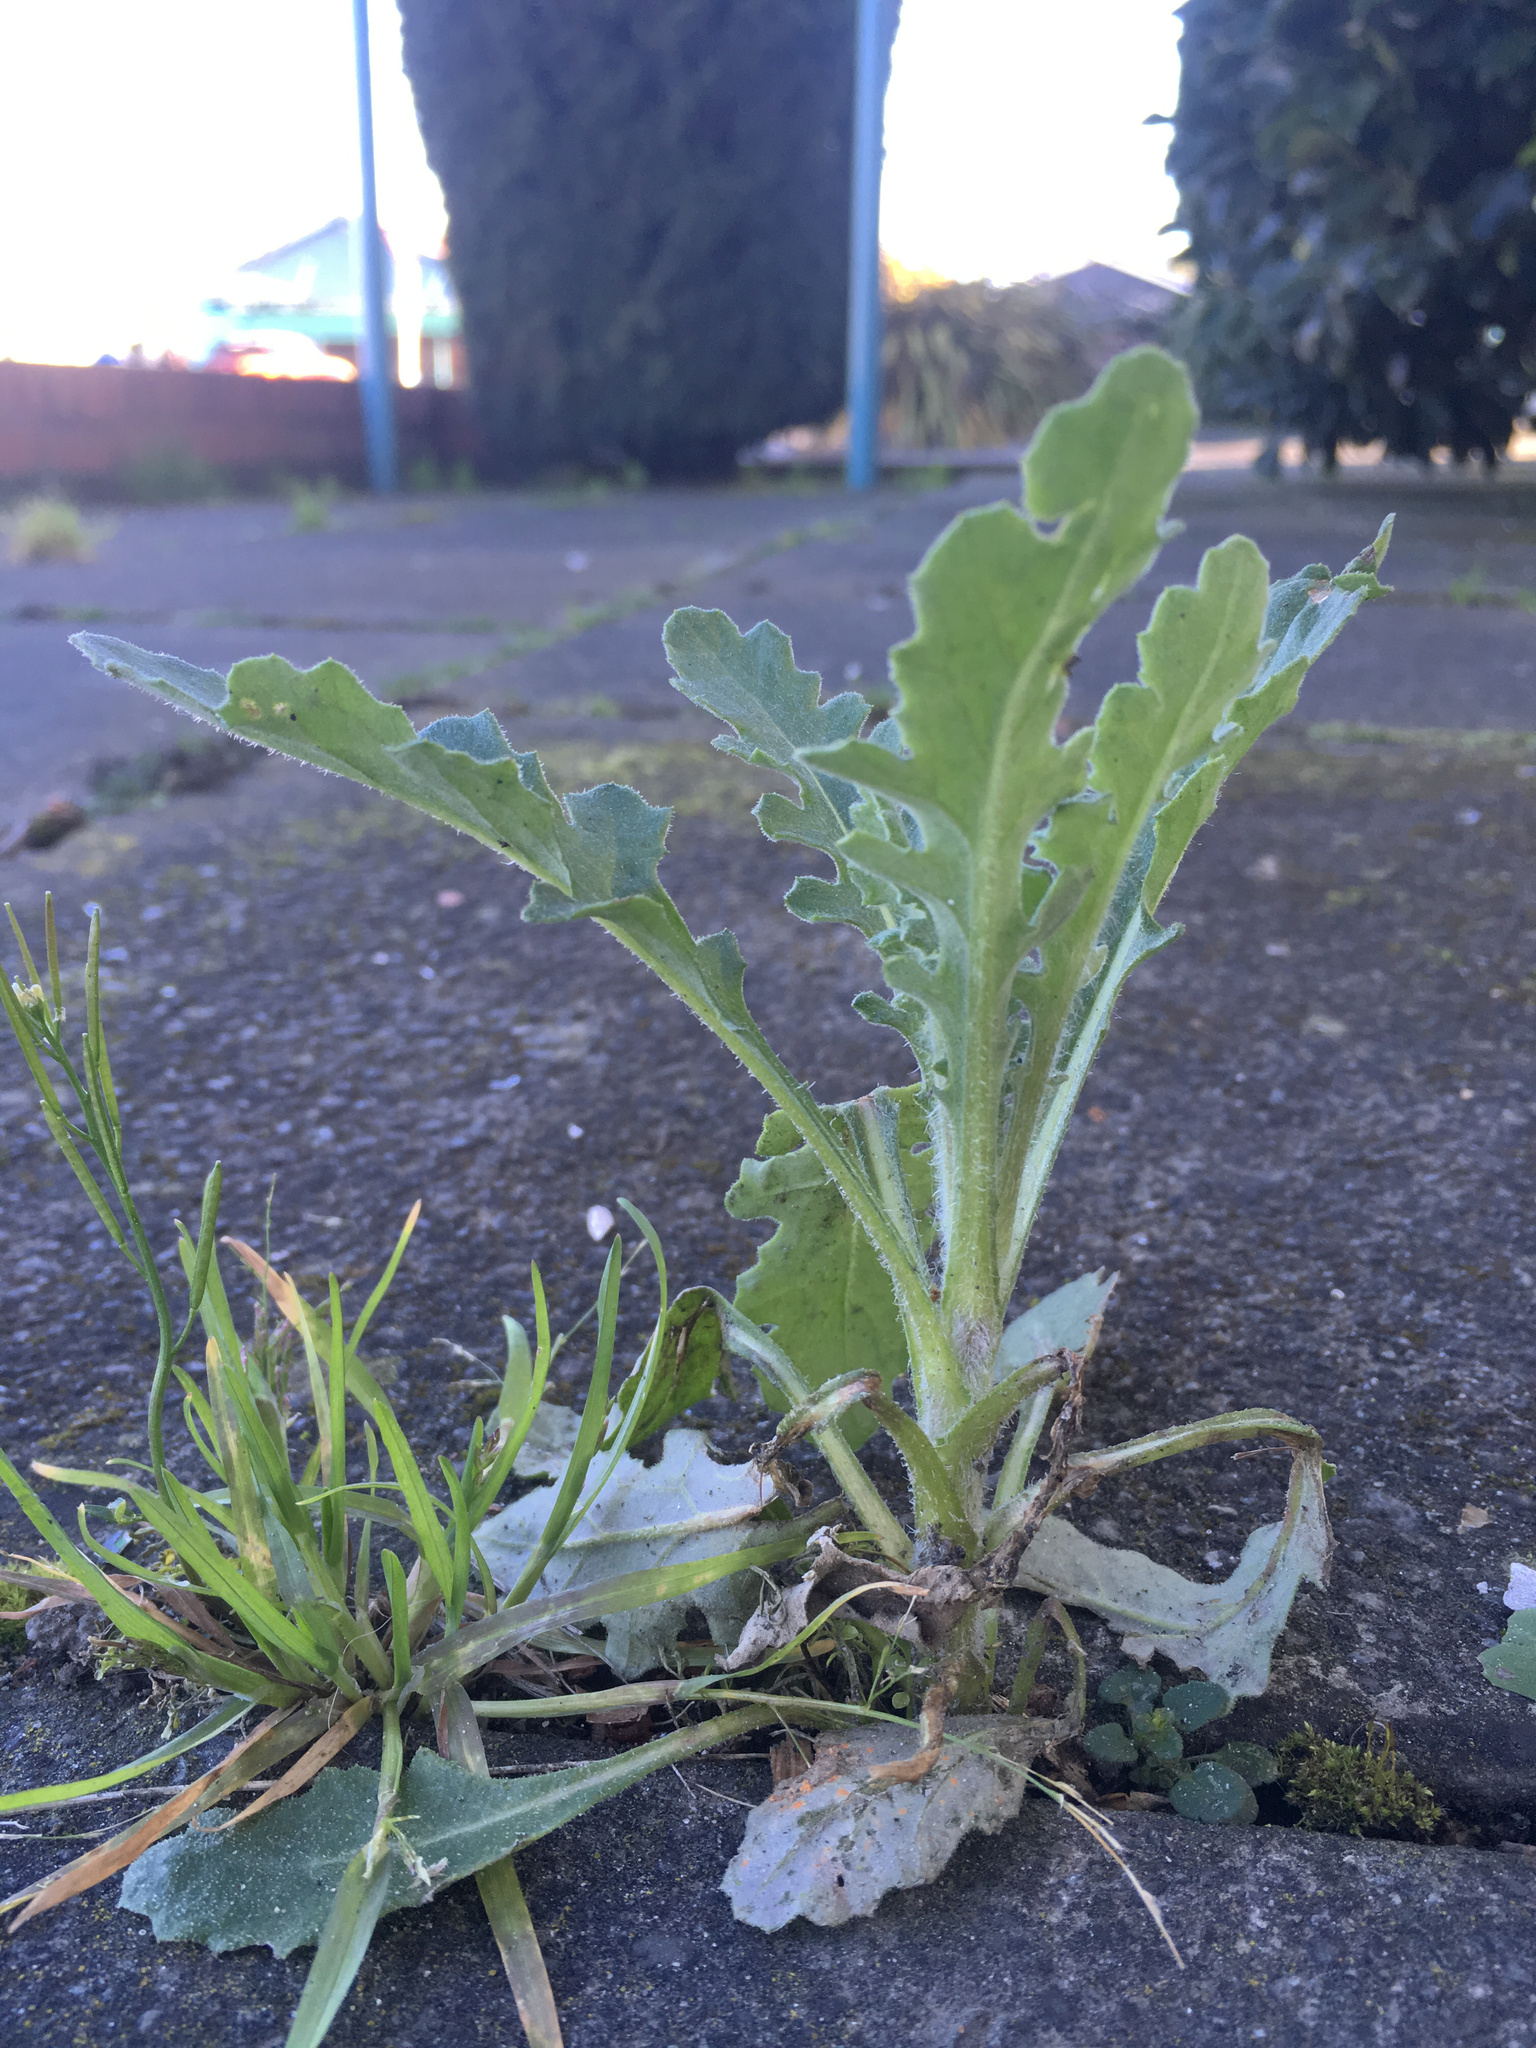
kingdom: Plantae
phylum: Tracheophyta
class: Magnoliopsida
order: Asterales
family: Asteraceae
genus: Senecio
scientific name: Senecio glomeratus
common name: Cutleaf burnweed
